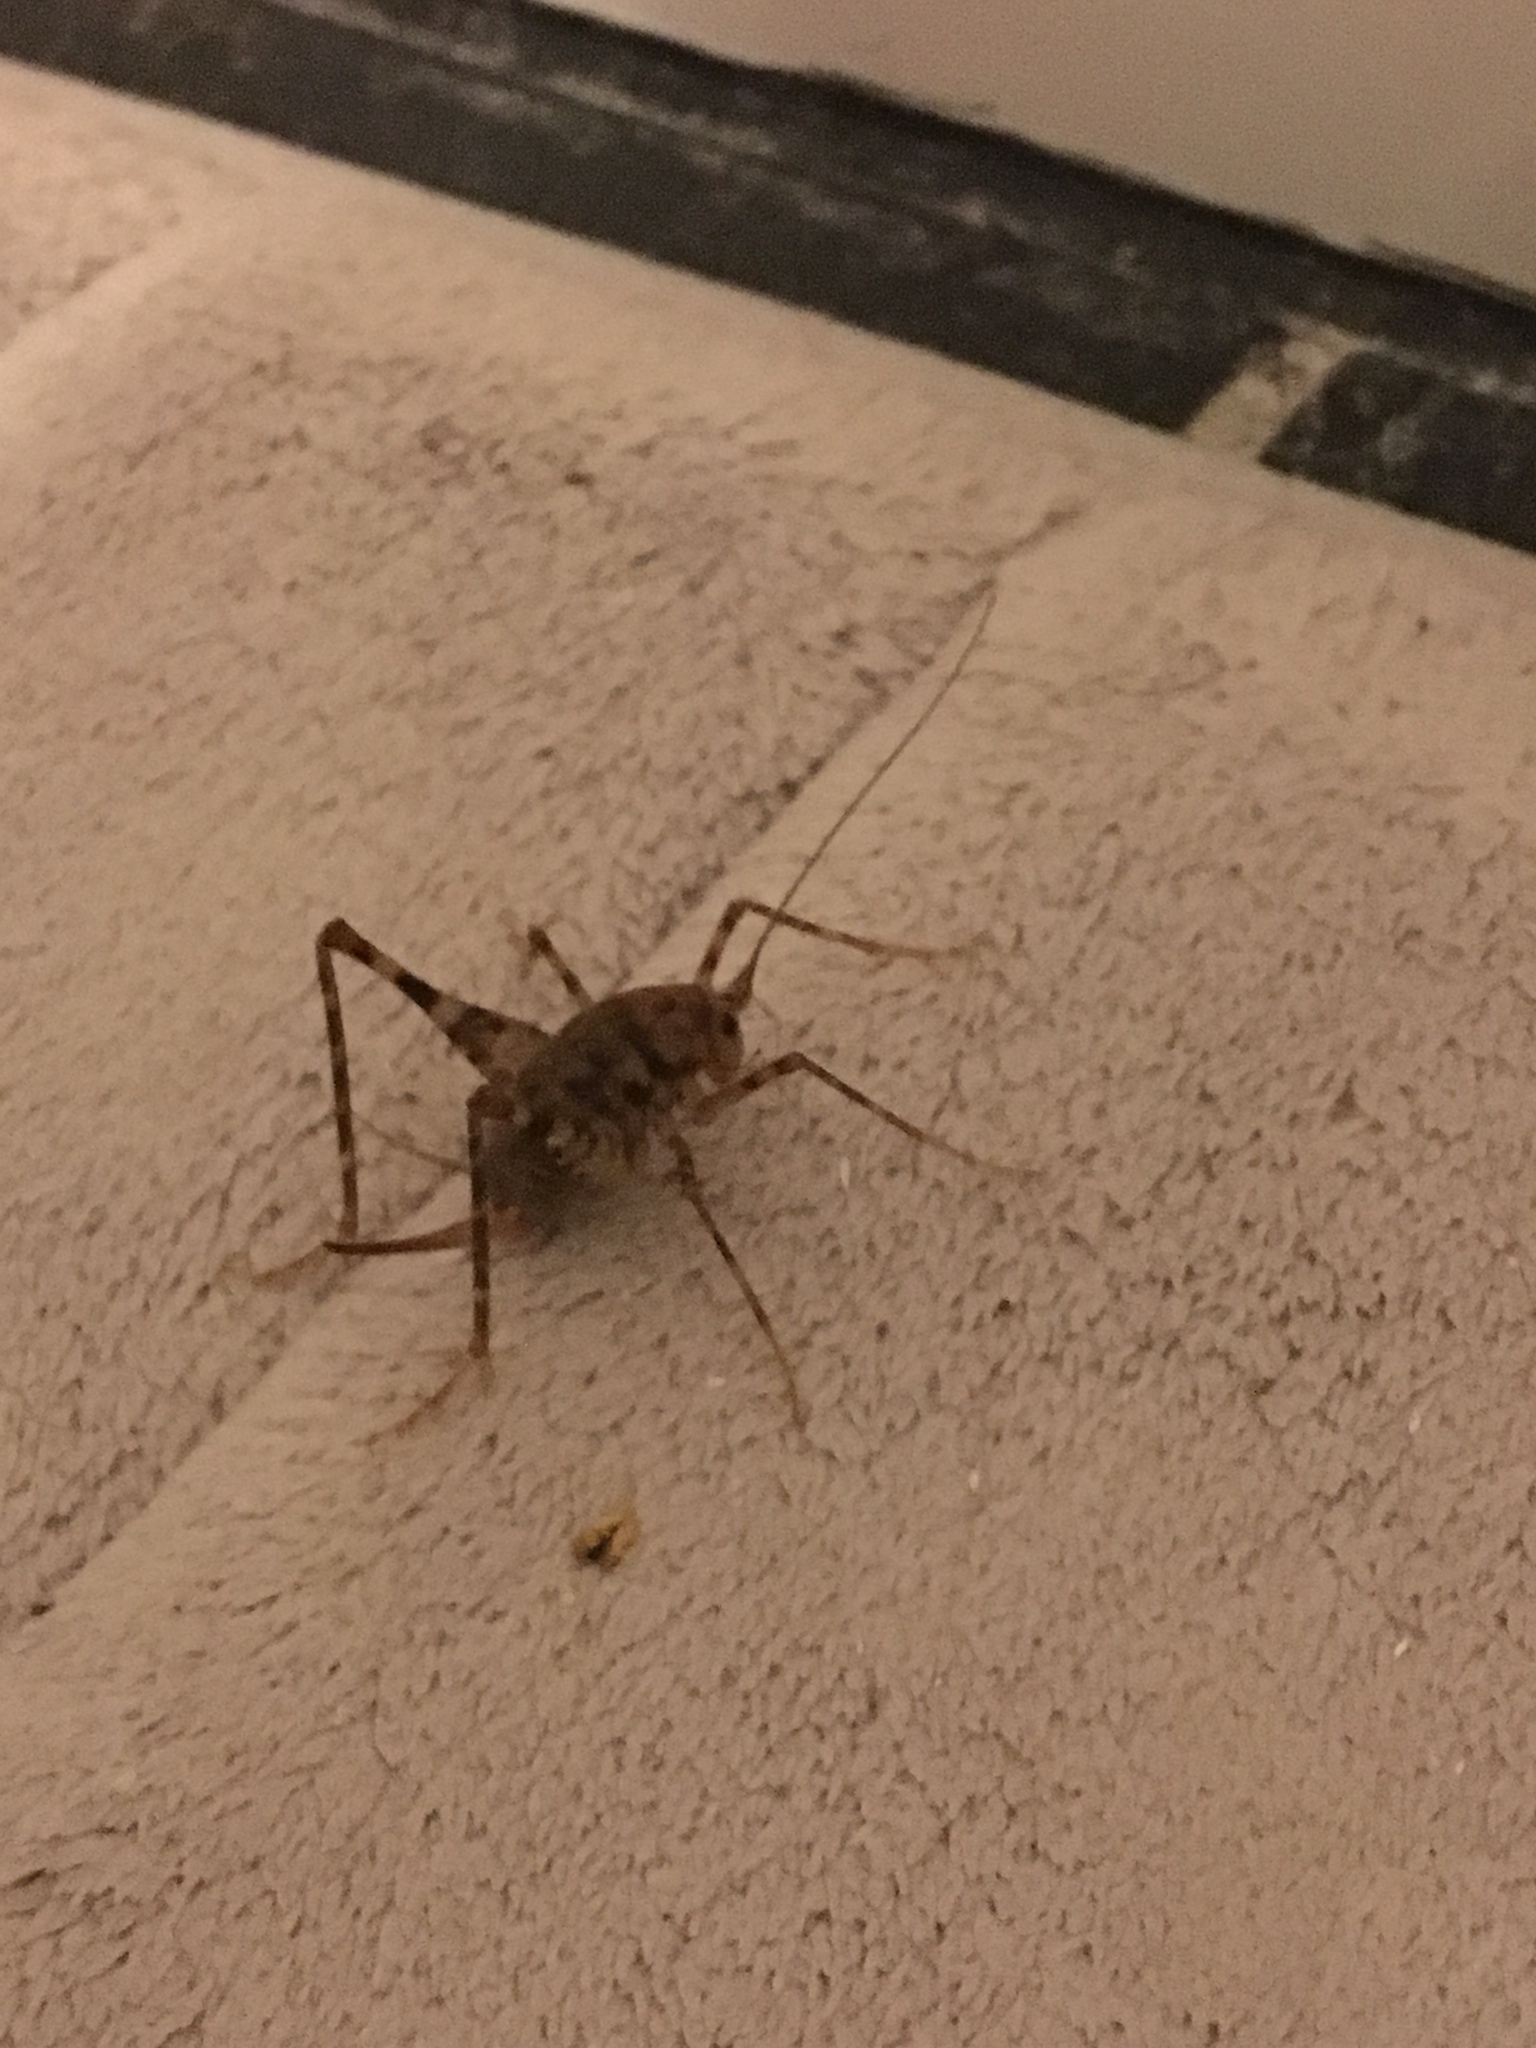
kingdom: Animalia
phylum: Arthropoda
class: Insecta
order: Orthoptera
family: Rhaphidophoridae
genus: Tachycines
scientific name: Tachycines asynamorus
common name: Greenhouse camel cricket
